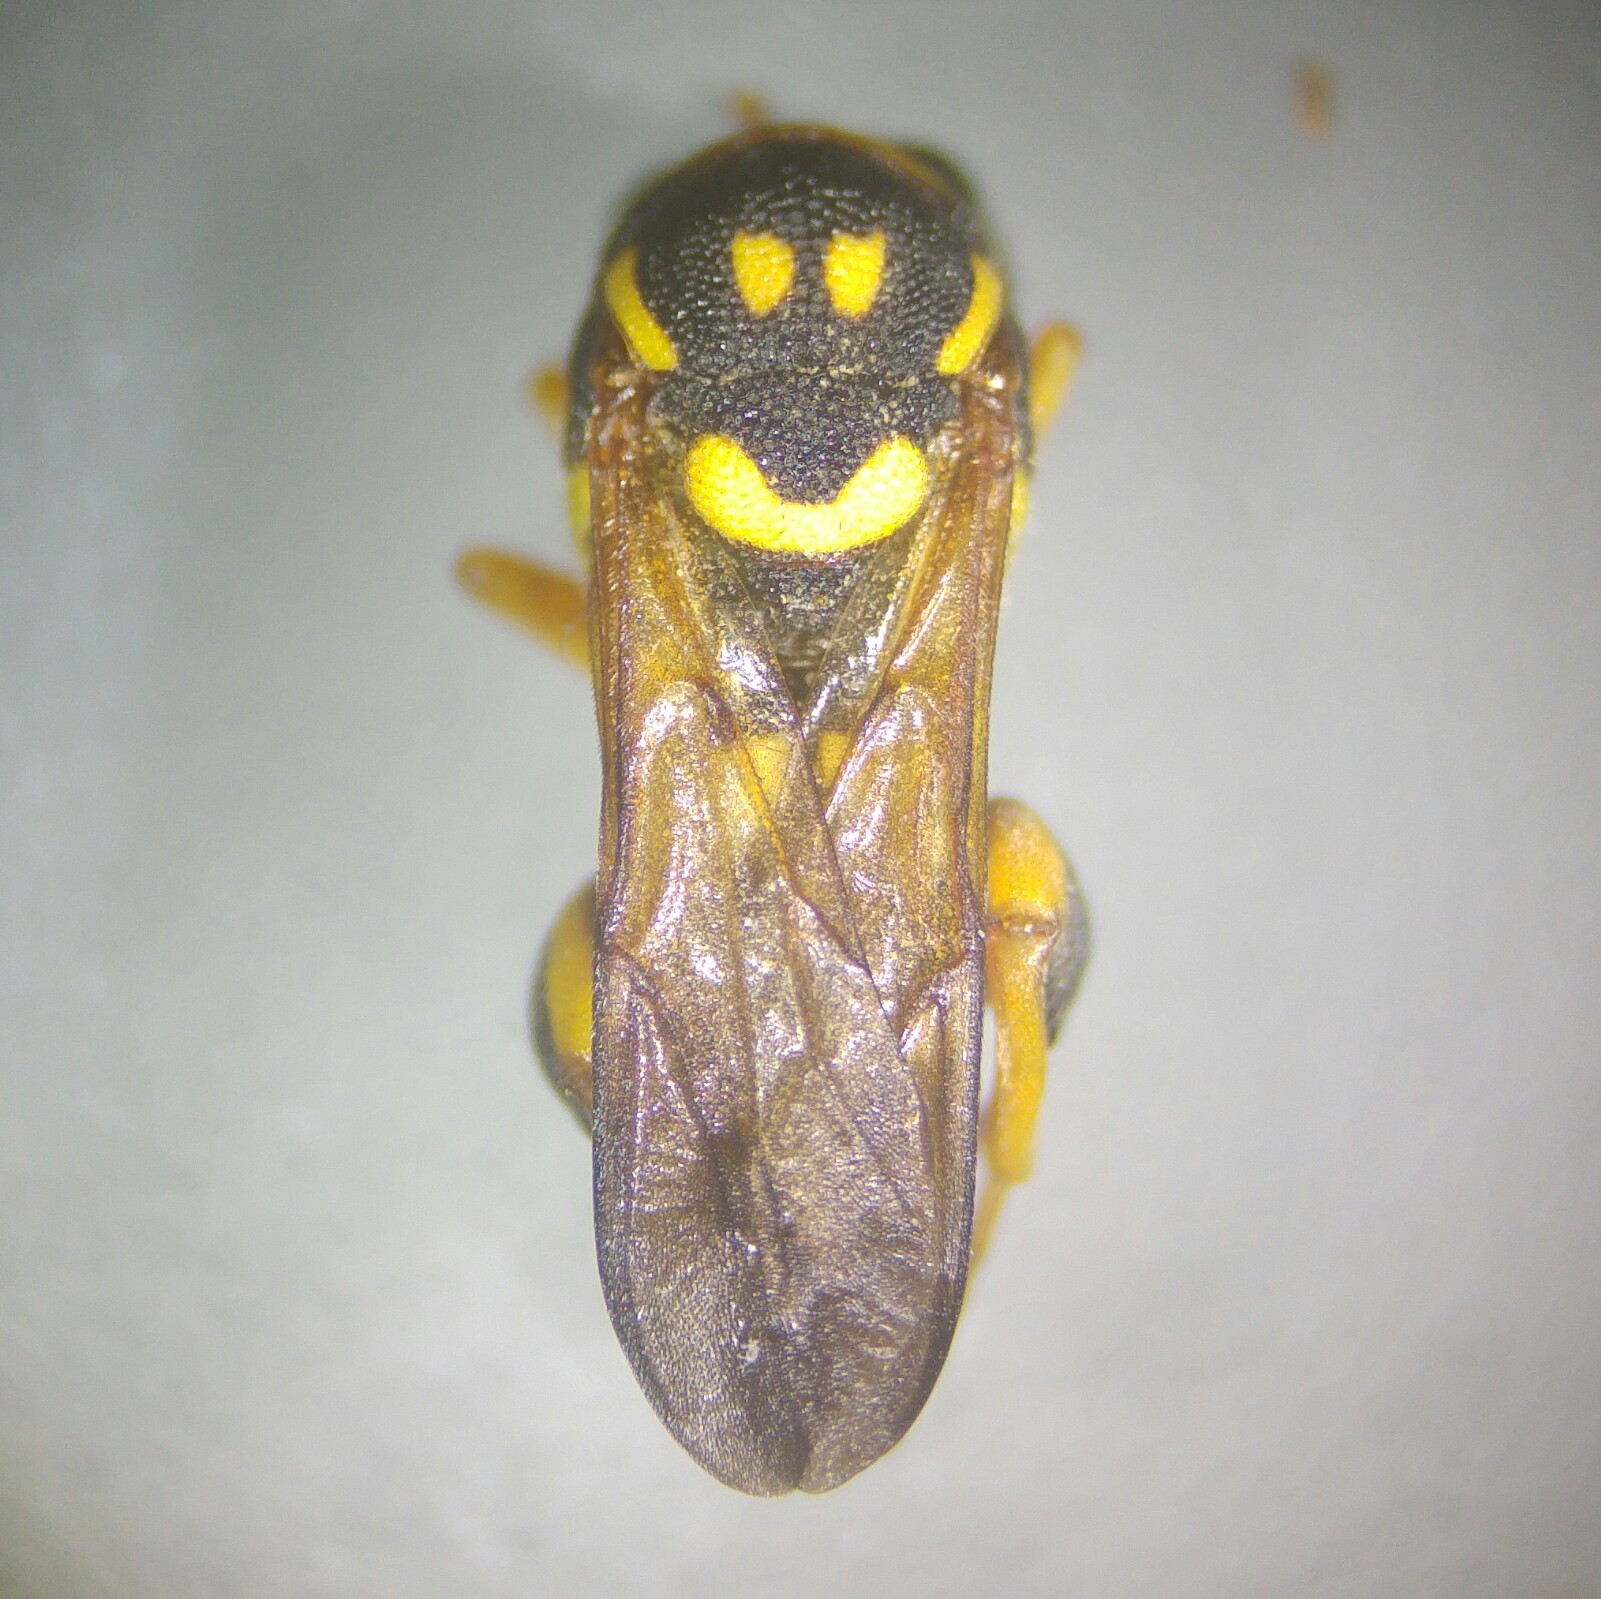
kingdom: Animalia
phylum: Arthropoda
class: Insecta
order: Hymenoptera
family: Leucospidae
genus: Leucospis
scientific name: Leucospis gigas
